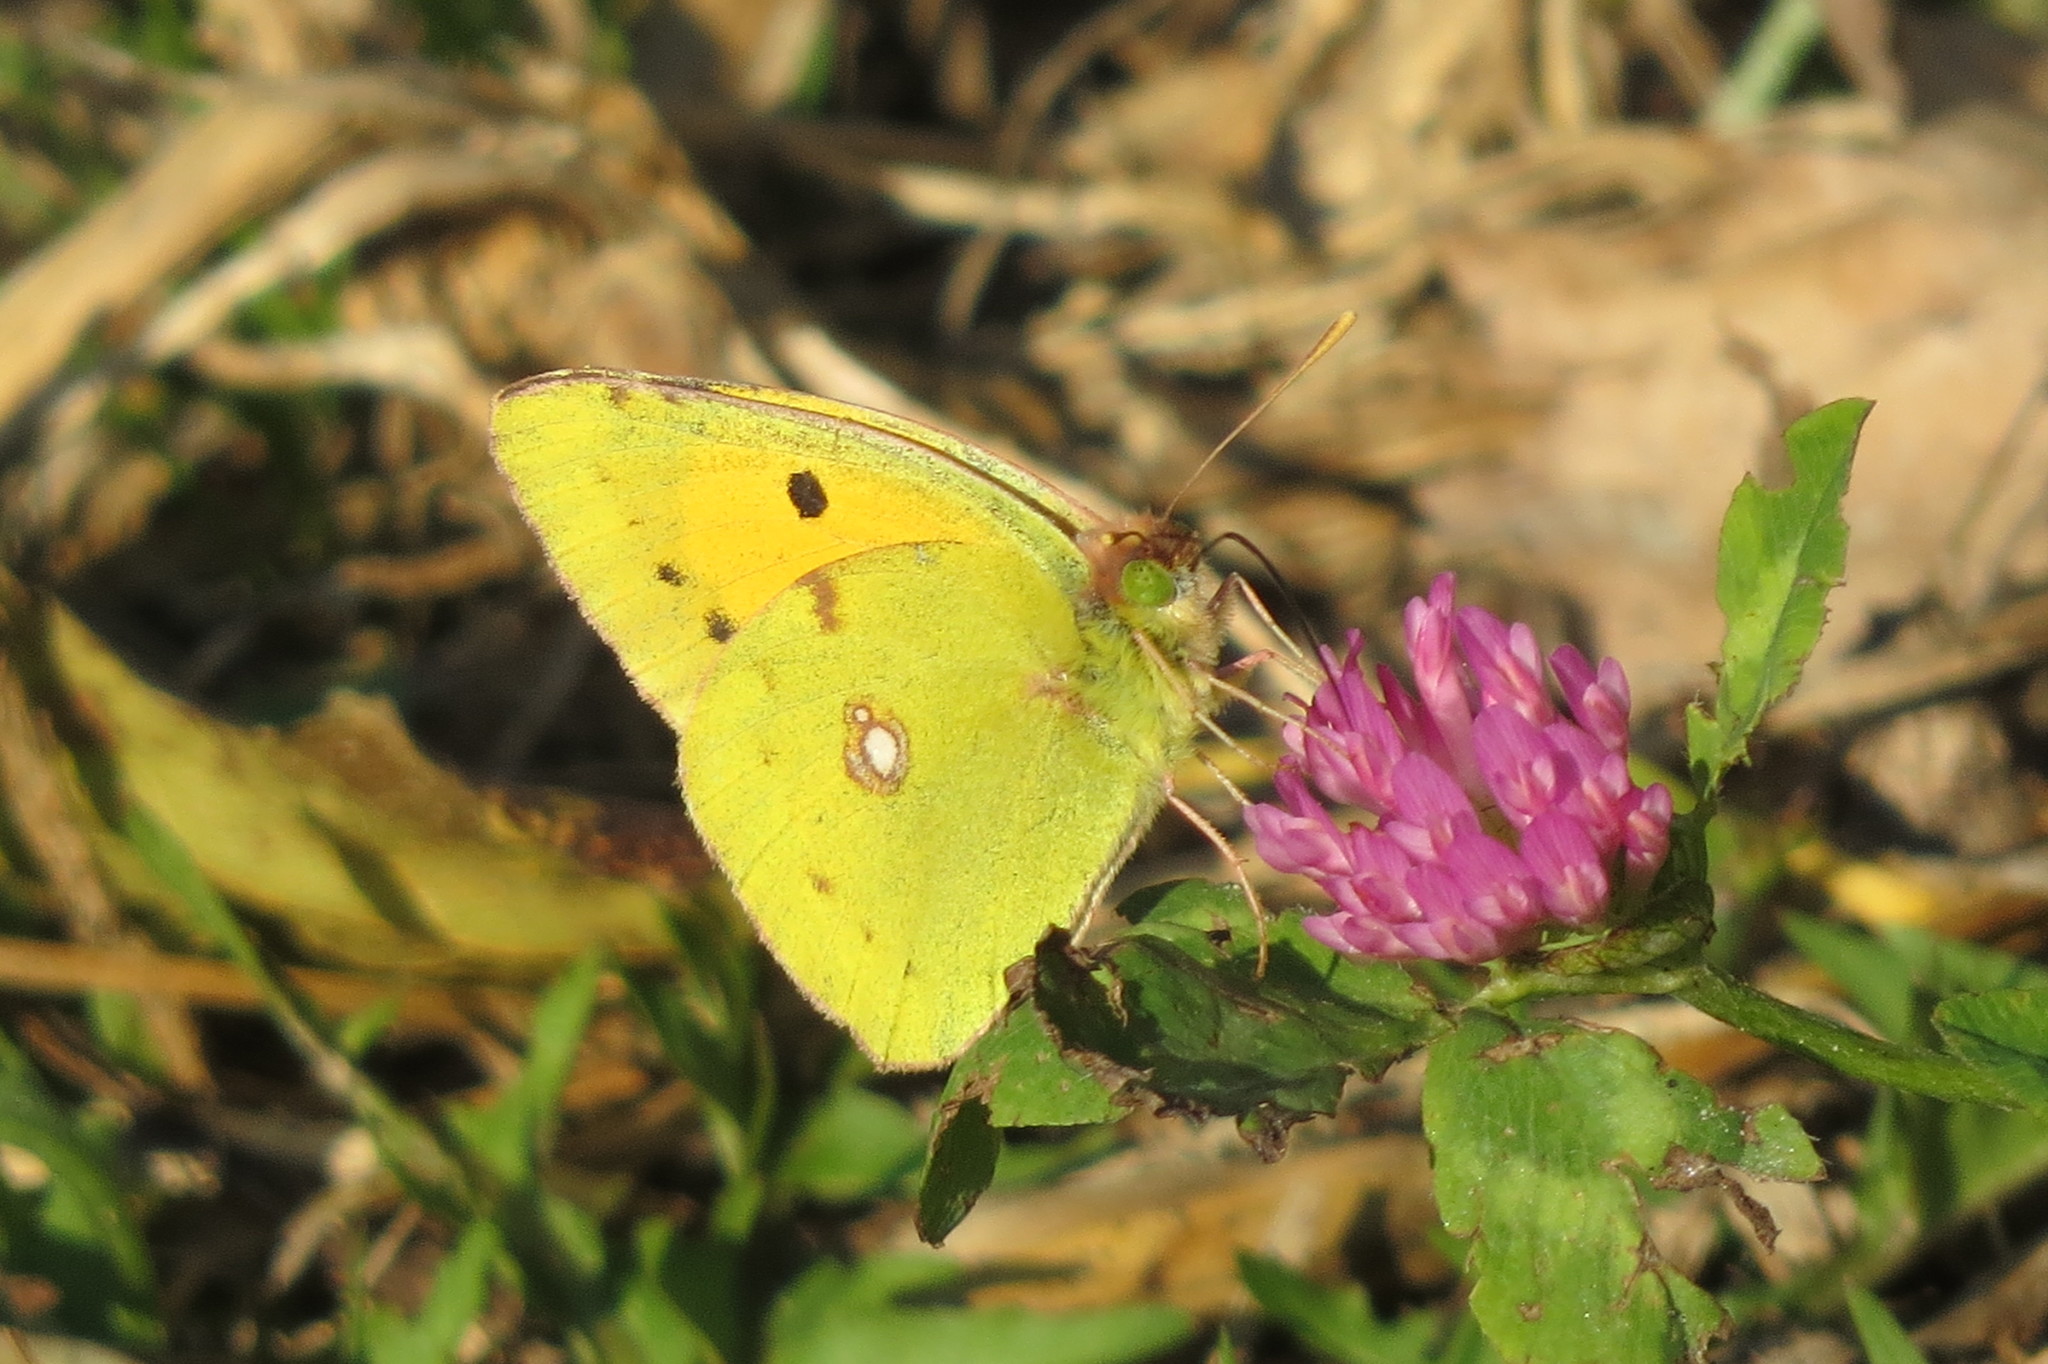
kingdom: Animalia
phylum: Arthropoda
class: Insecta
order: Lepidoptera
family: Pieridae
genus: Colias
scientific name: Colias croceus
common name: Clouded yellow
